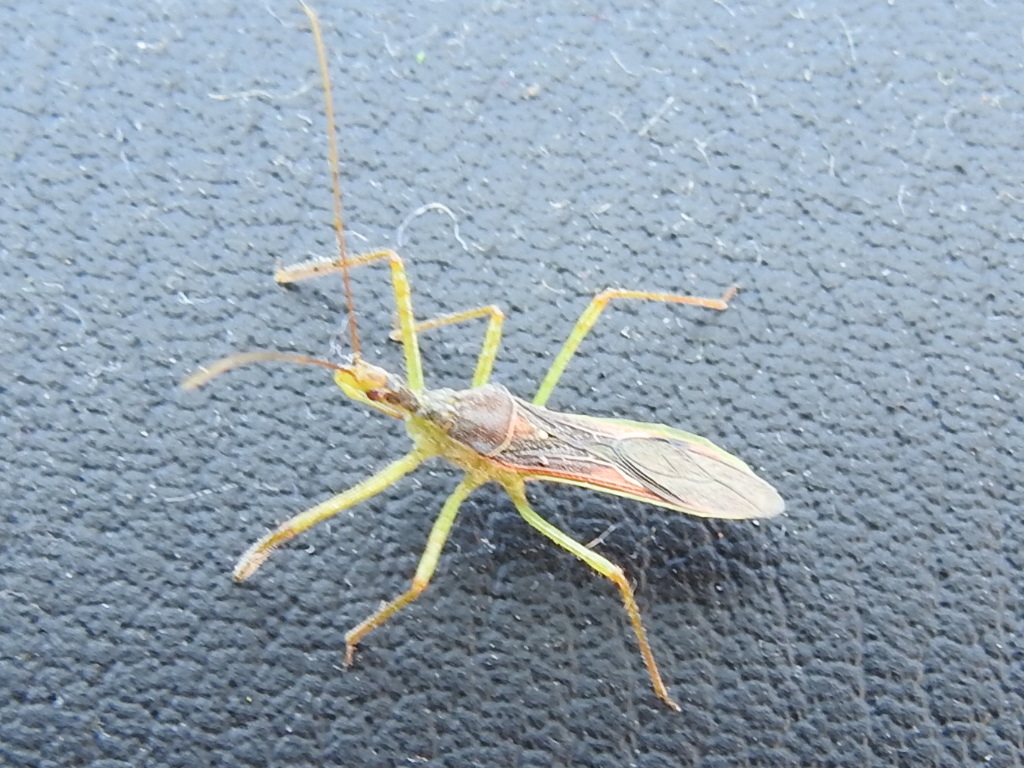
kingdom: Animalia
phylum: Arthropoda
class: Insecta
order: Hemiptera
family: Reduviidae
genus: Zelus
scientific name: Zelus renardii
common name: Assassin bug
